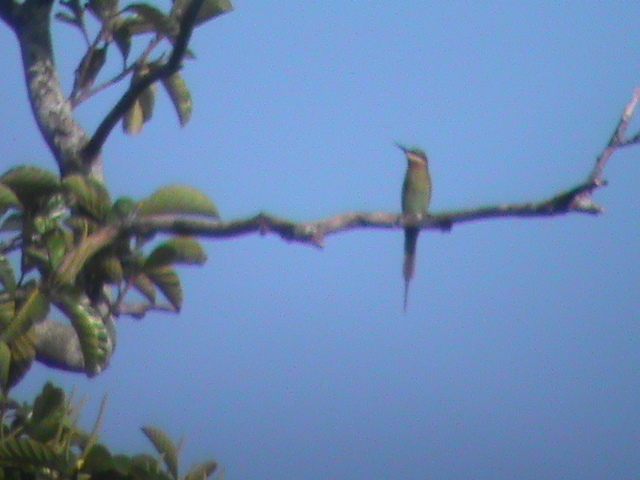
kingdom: Animalia
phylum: Chordata
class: Aves
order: Coraciiformes
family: Meropidae
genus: Merops
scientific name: Merops philippinus
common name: Blue-tailed bee-eater
